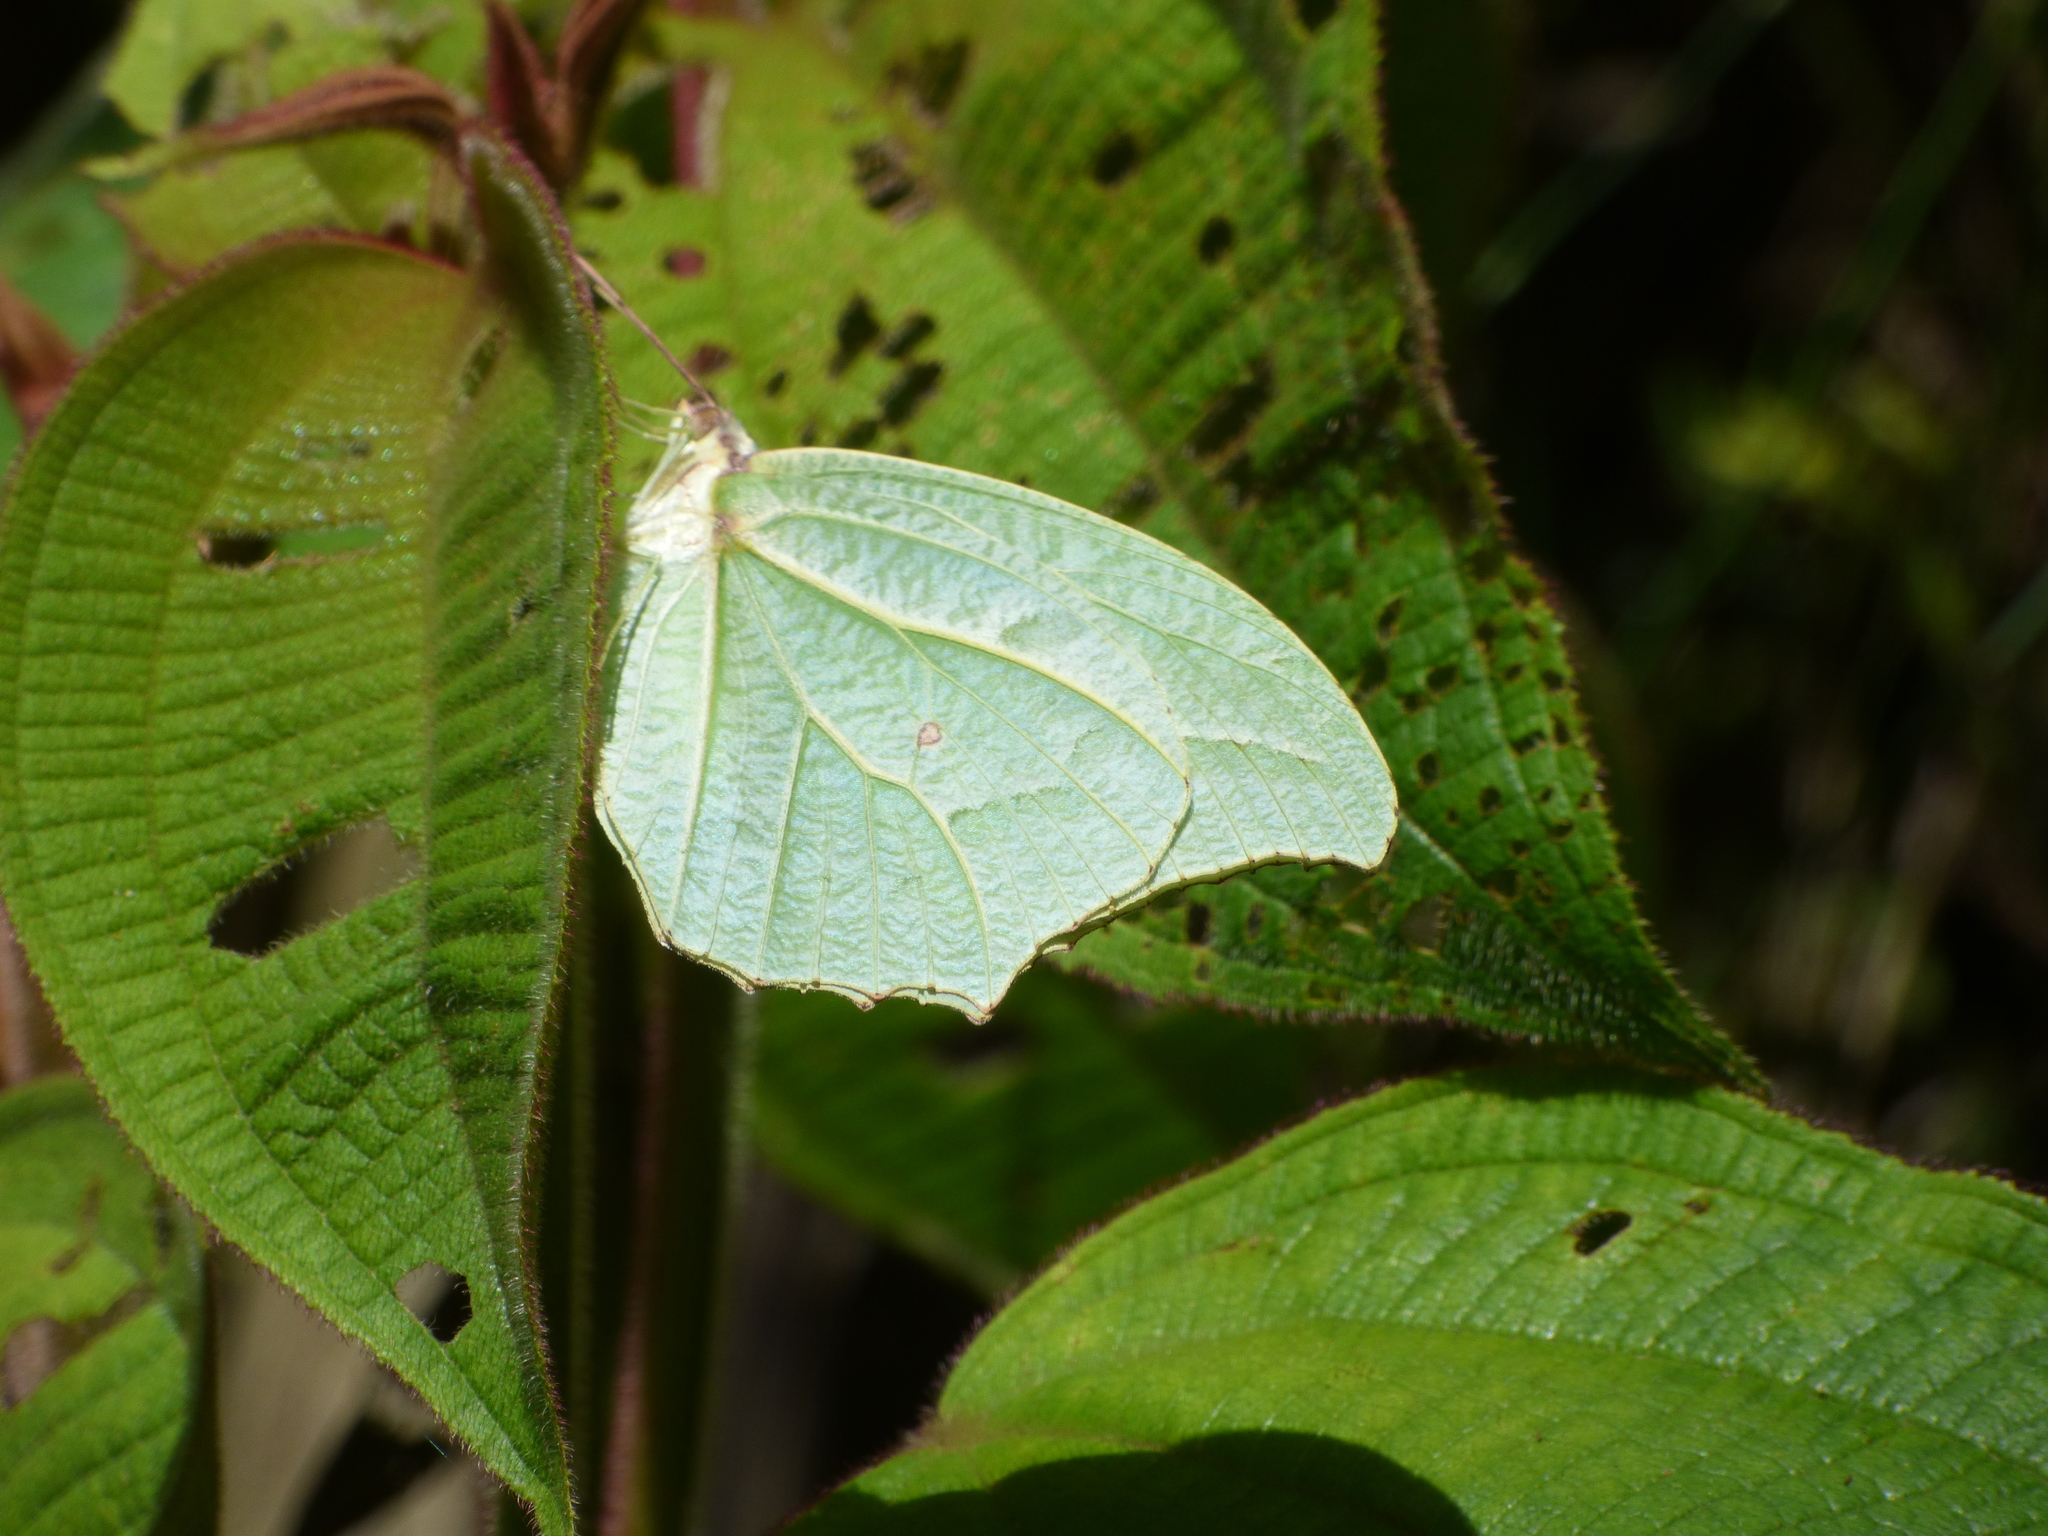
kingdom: Animalia
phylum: Arthropoda
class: Insecta
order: Lepidoptera
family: Pieridae
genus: Anteos
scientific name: Anteos clorinde
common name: White angled sulphur
